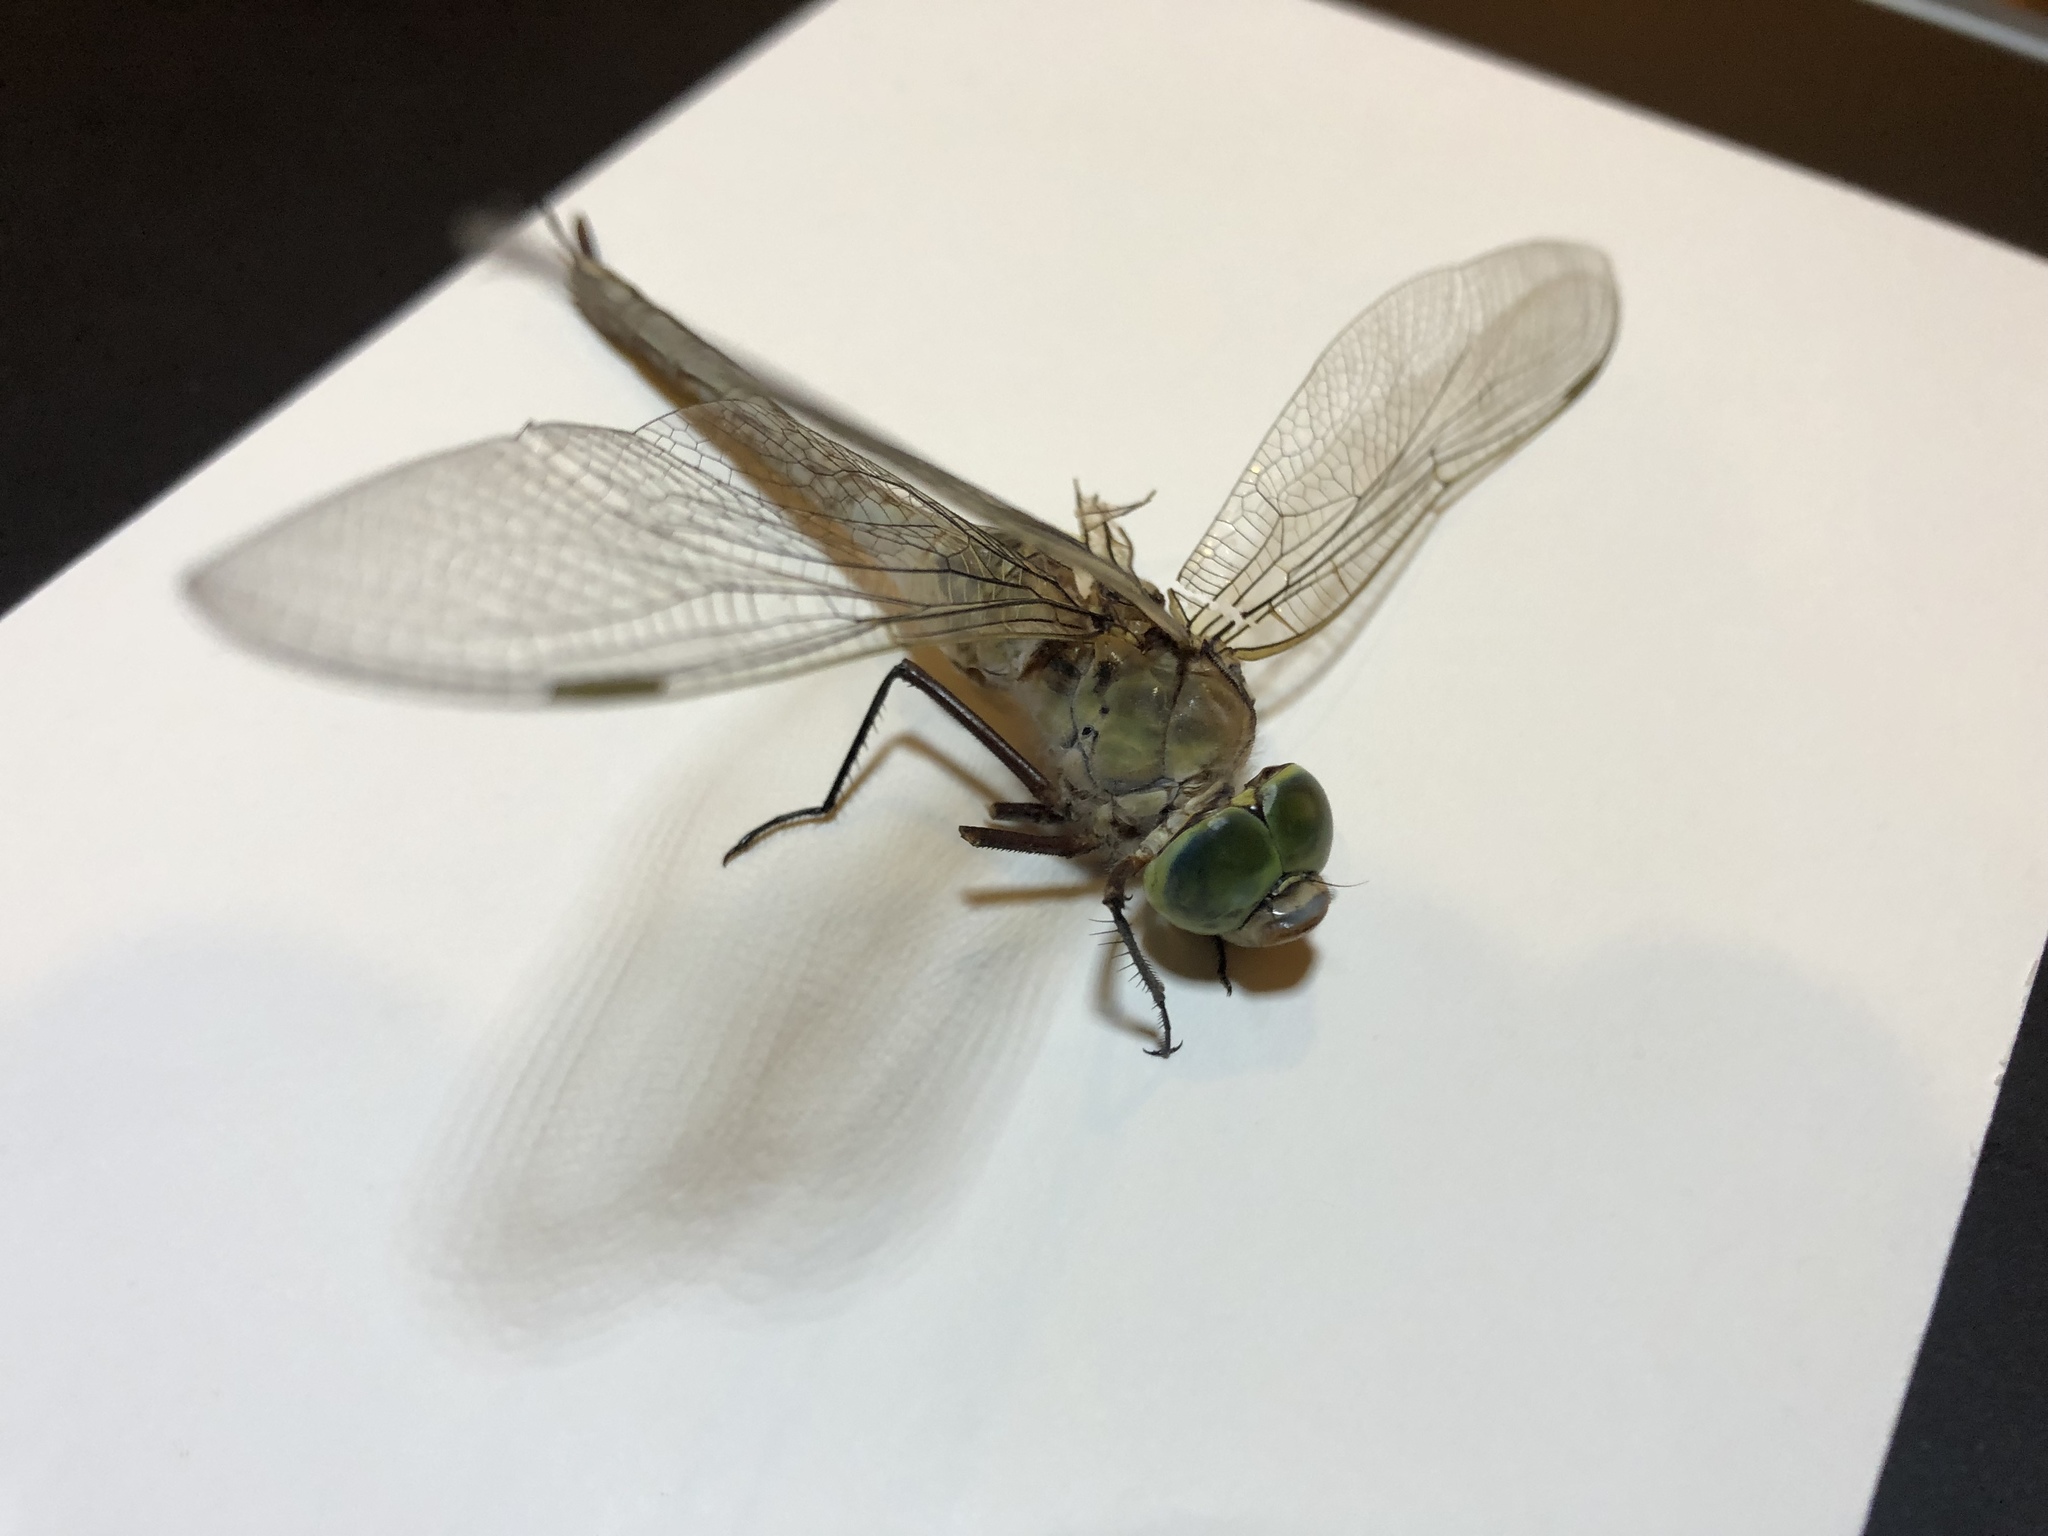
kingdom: Animalia
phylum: Arthropoda
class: Insecta
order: Odonata
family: Aeshnidae
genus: Anax
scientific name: Anax parthenope
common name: Lesser emperor
